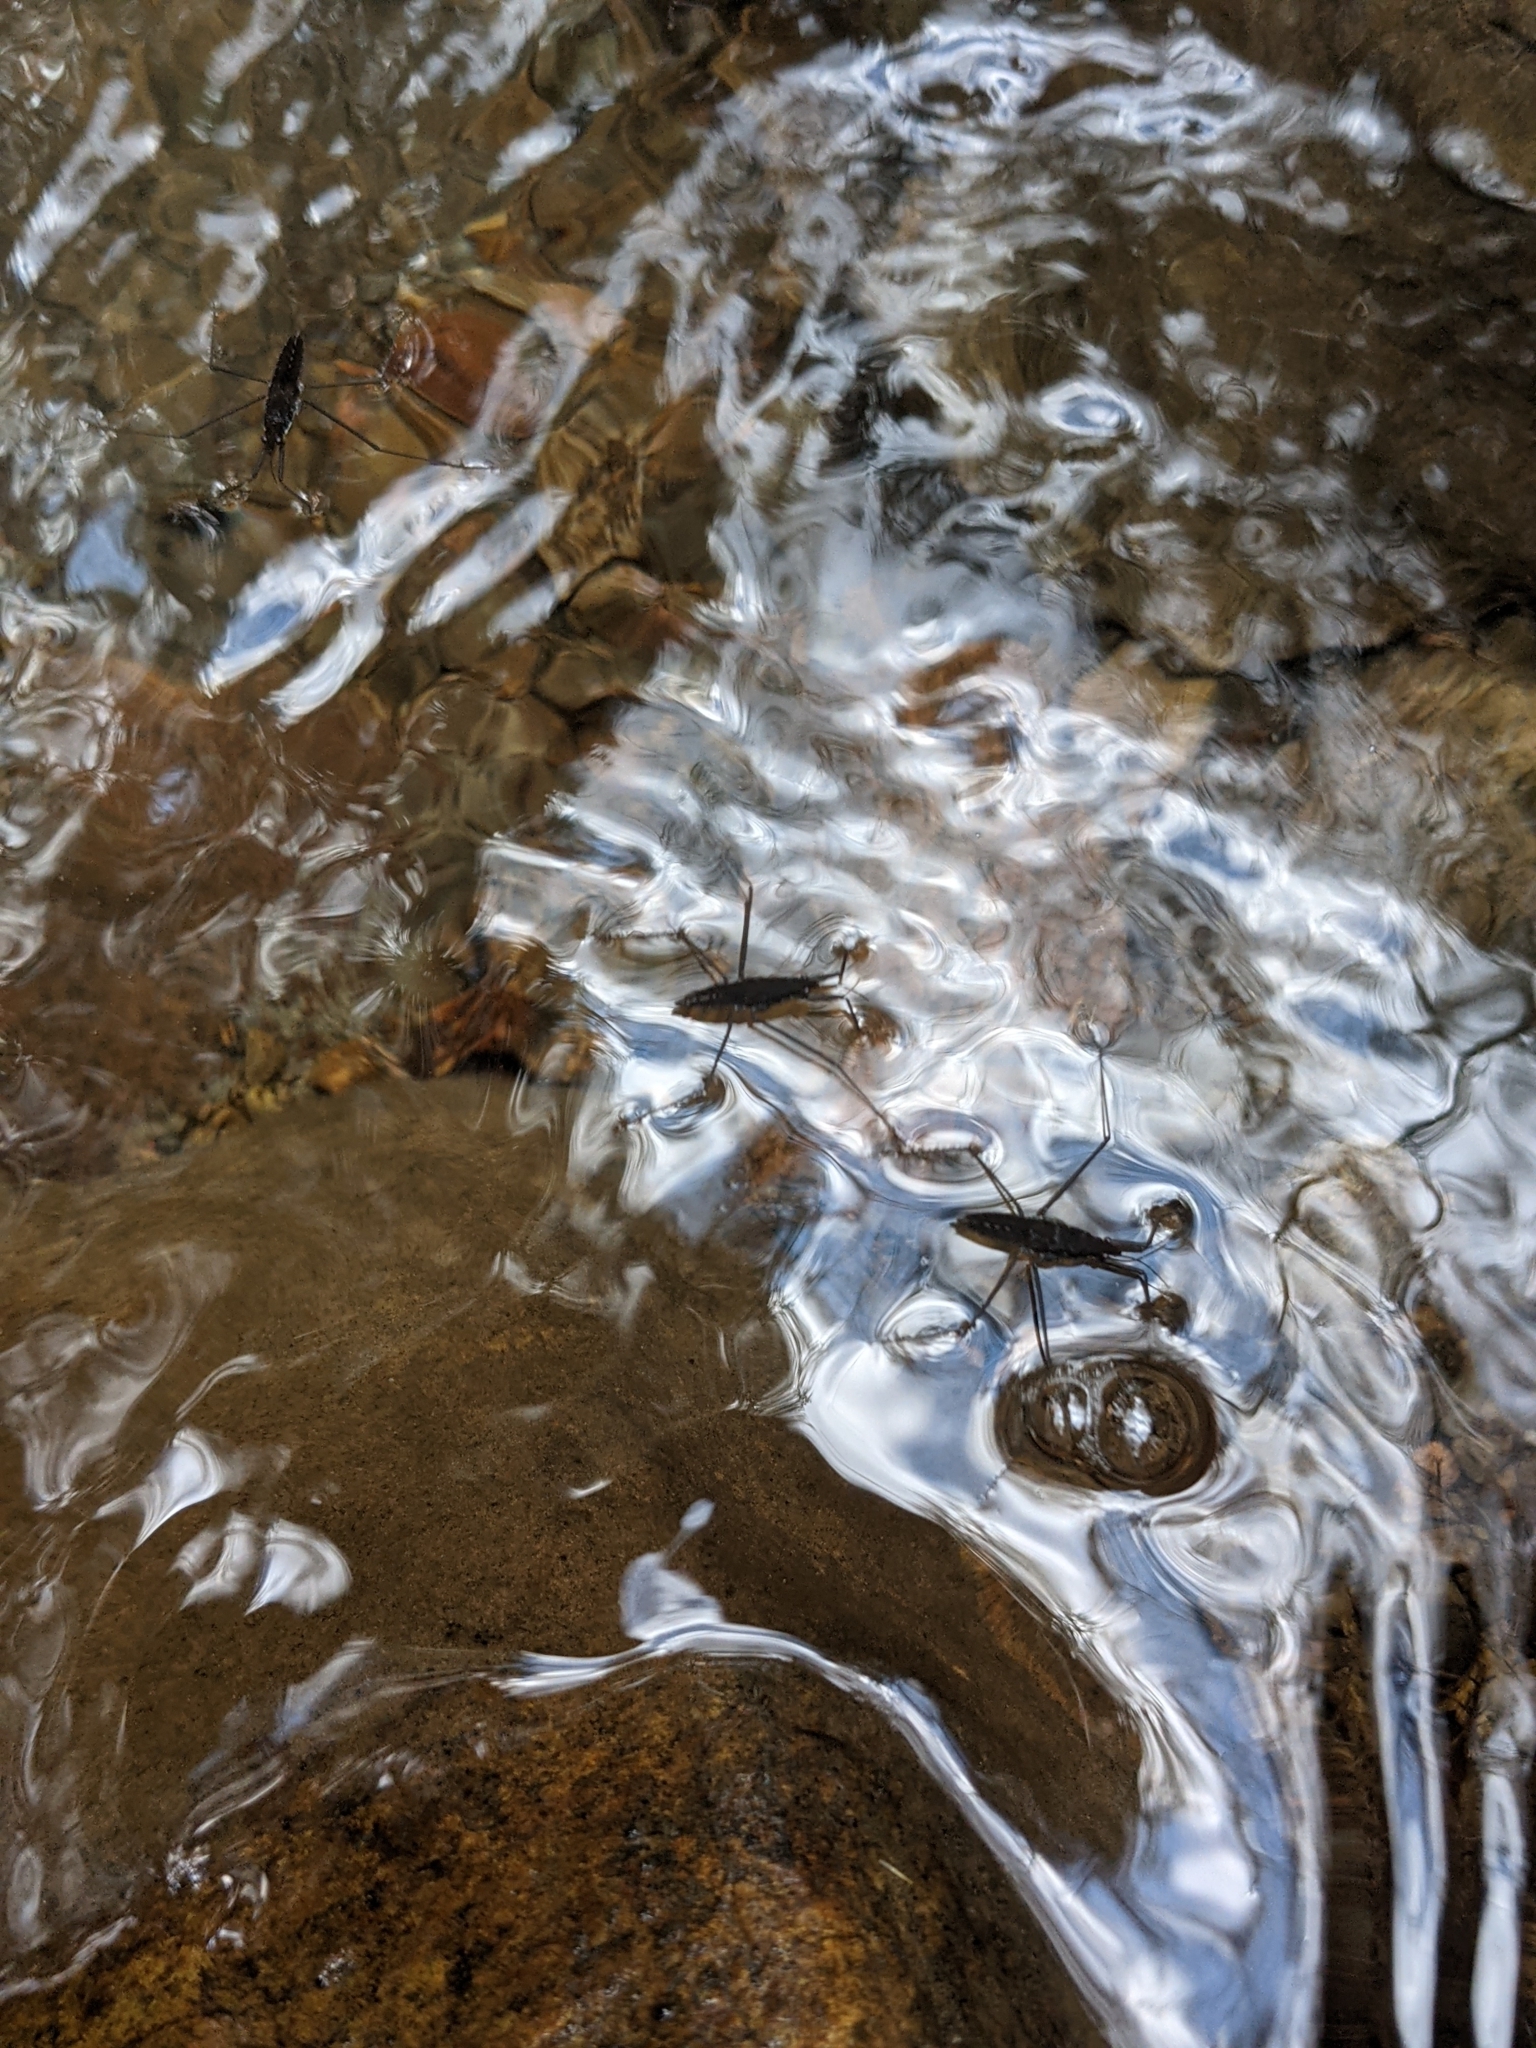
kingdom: Animalia
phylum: Arthropoda
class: Insecta
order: Hemiptera
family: Gerridae
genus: Aquarius
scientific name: Aquarius remigis
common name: Common water strider
